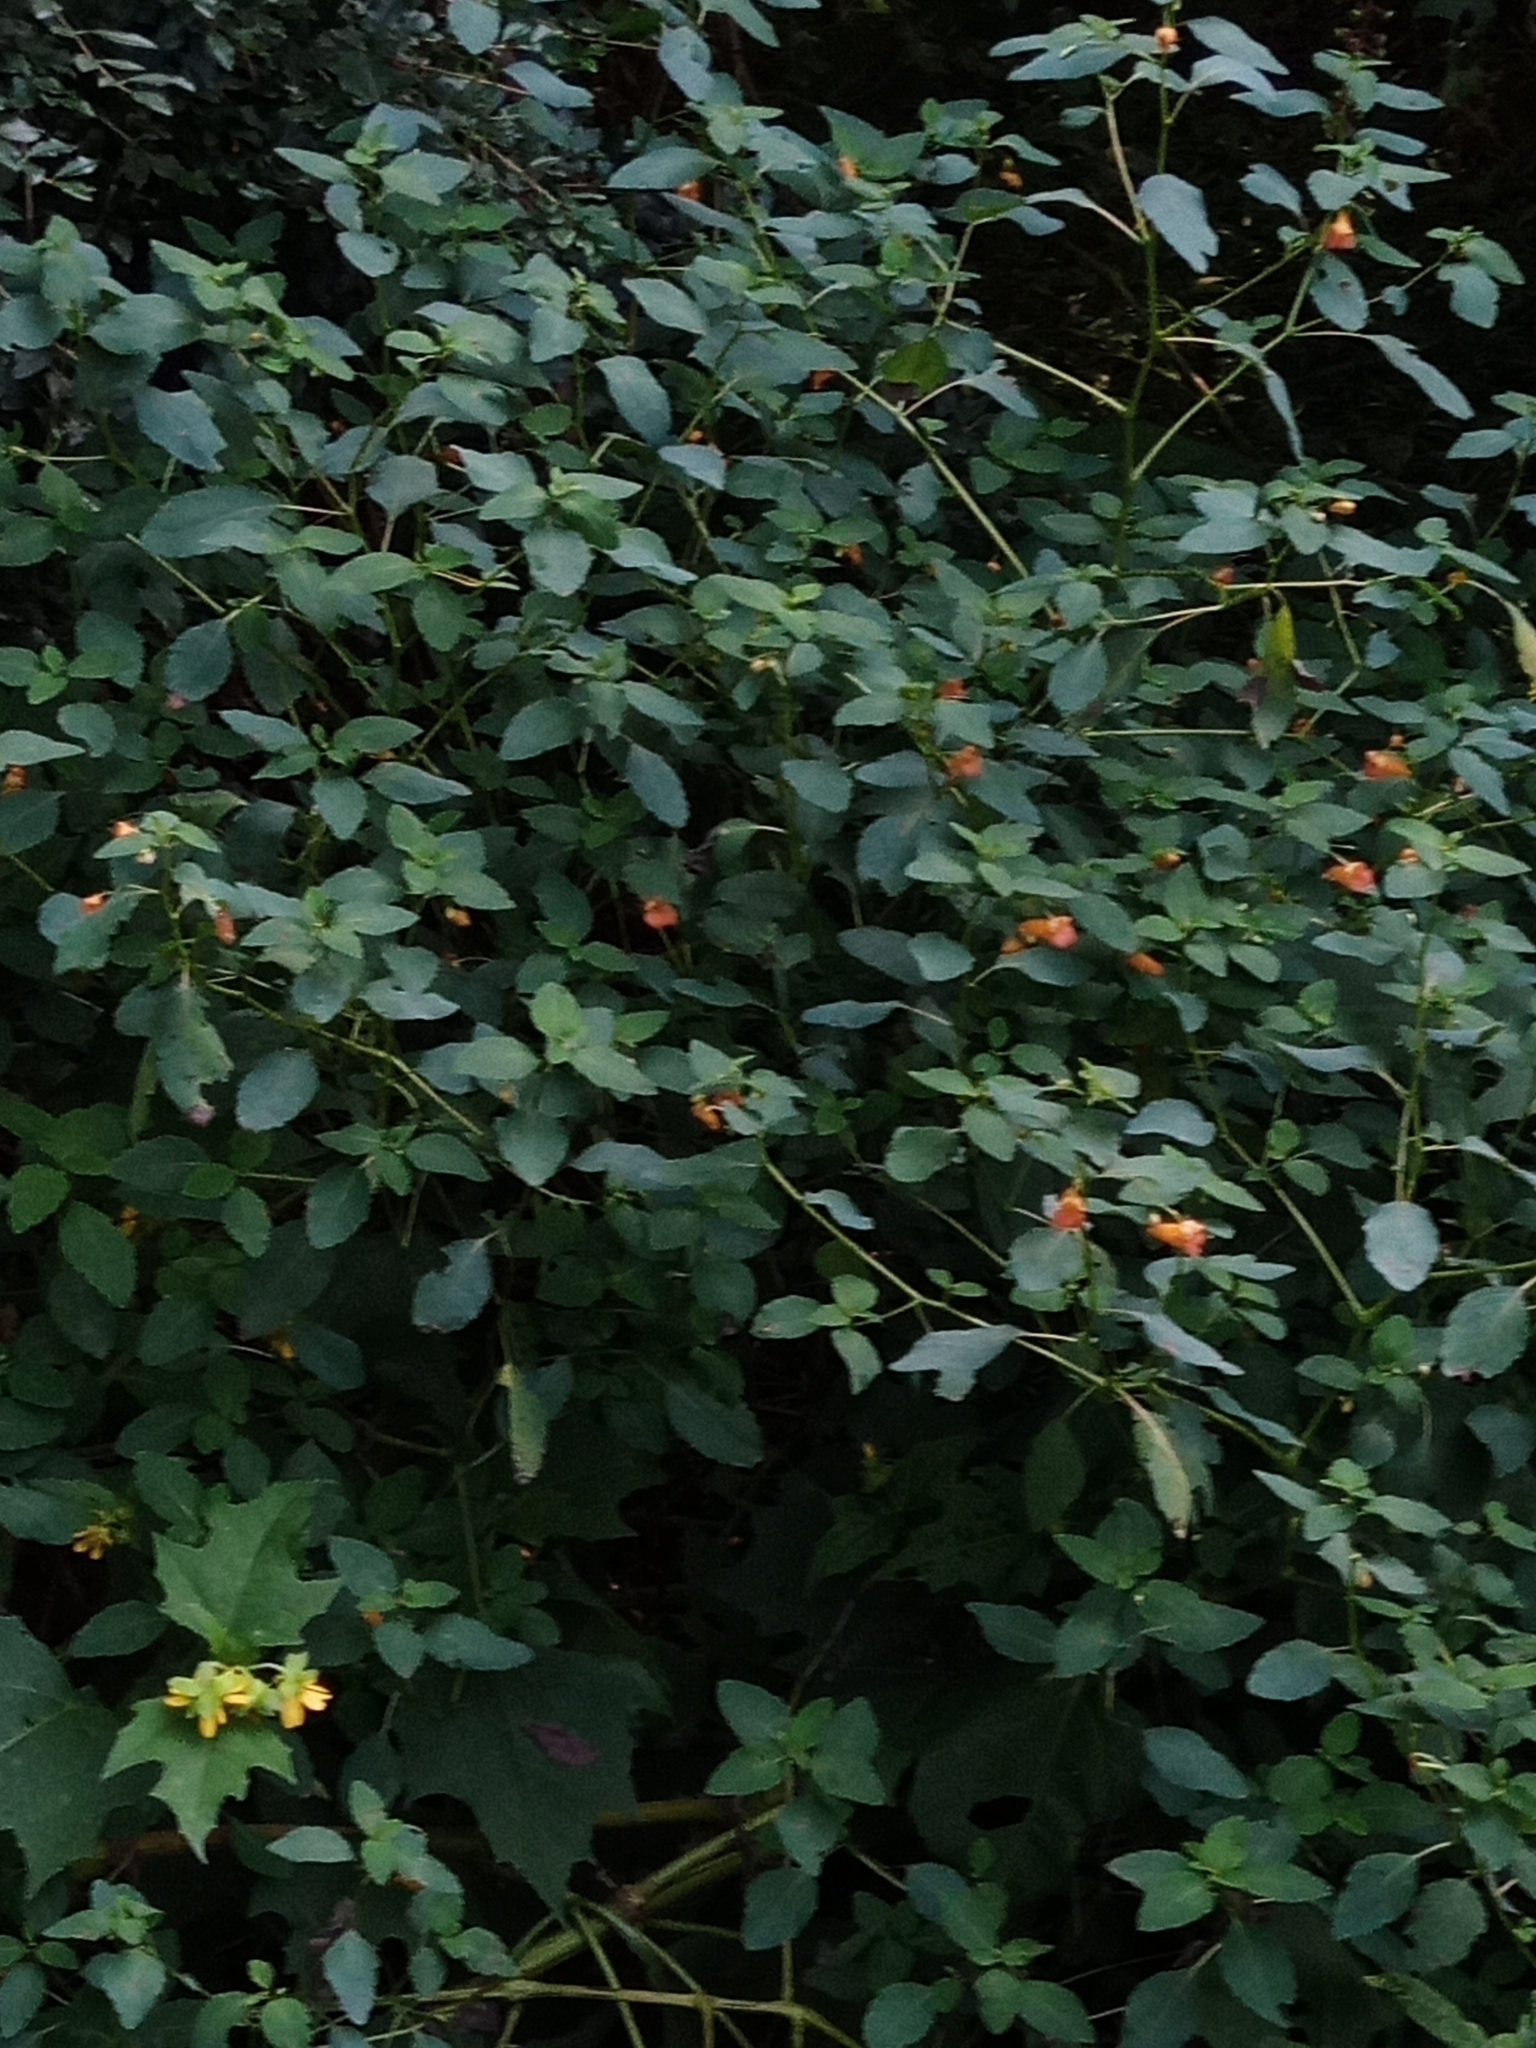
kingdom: Plantae
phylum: Tracheophyta
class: Magnoliopsida
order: Ericales
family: Balsaminaceae
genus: Impatiens
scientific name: Impatiens capensis
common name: Orange balsam
